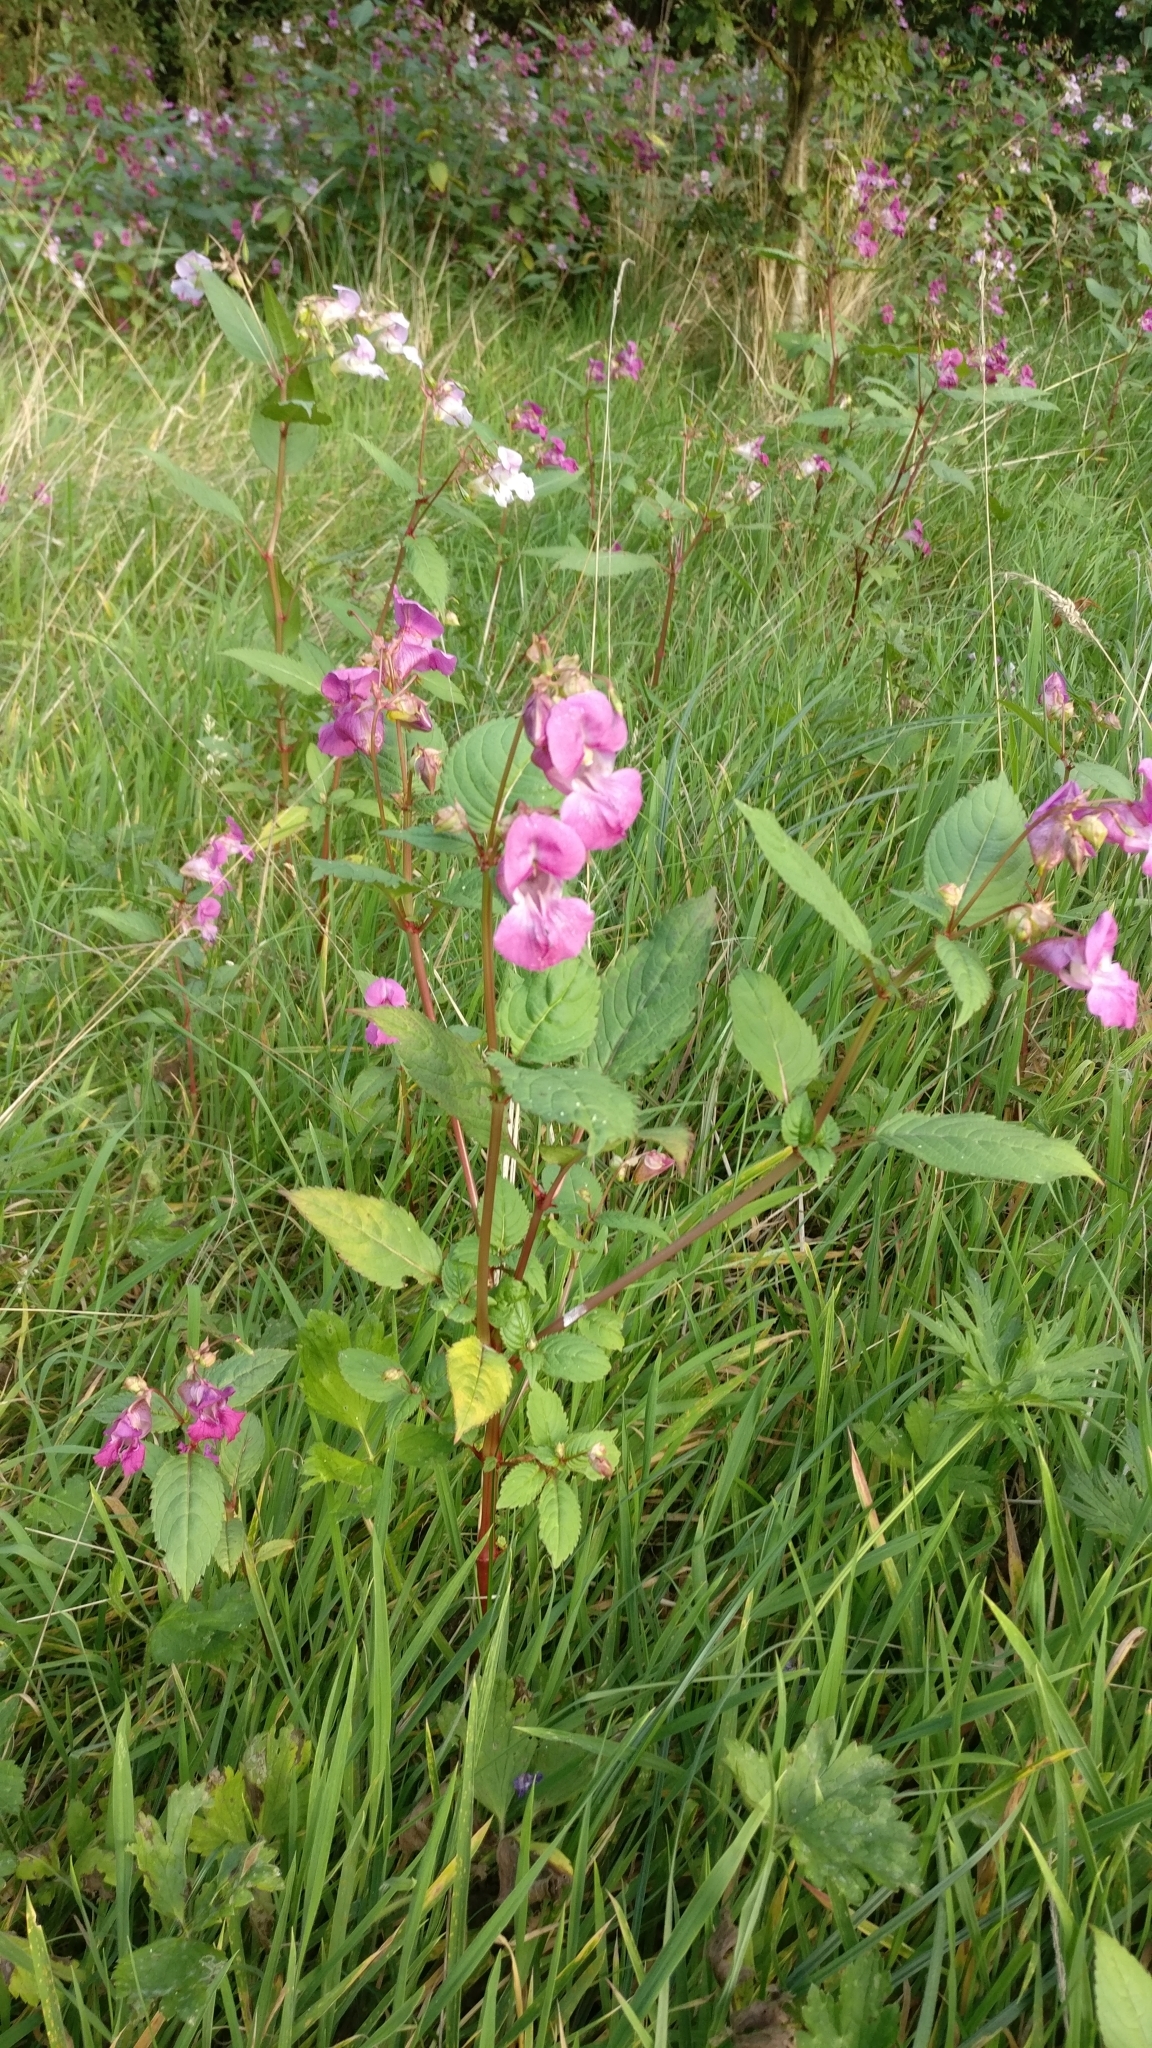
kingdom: Plantae
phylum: Tracheophyta
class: Magnoliopsida
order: Ericales
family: Balsaminaceae
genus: Impatiens
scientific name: Impatiens glandulifera
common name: Himalayan balsam
